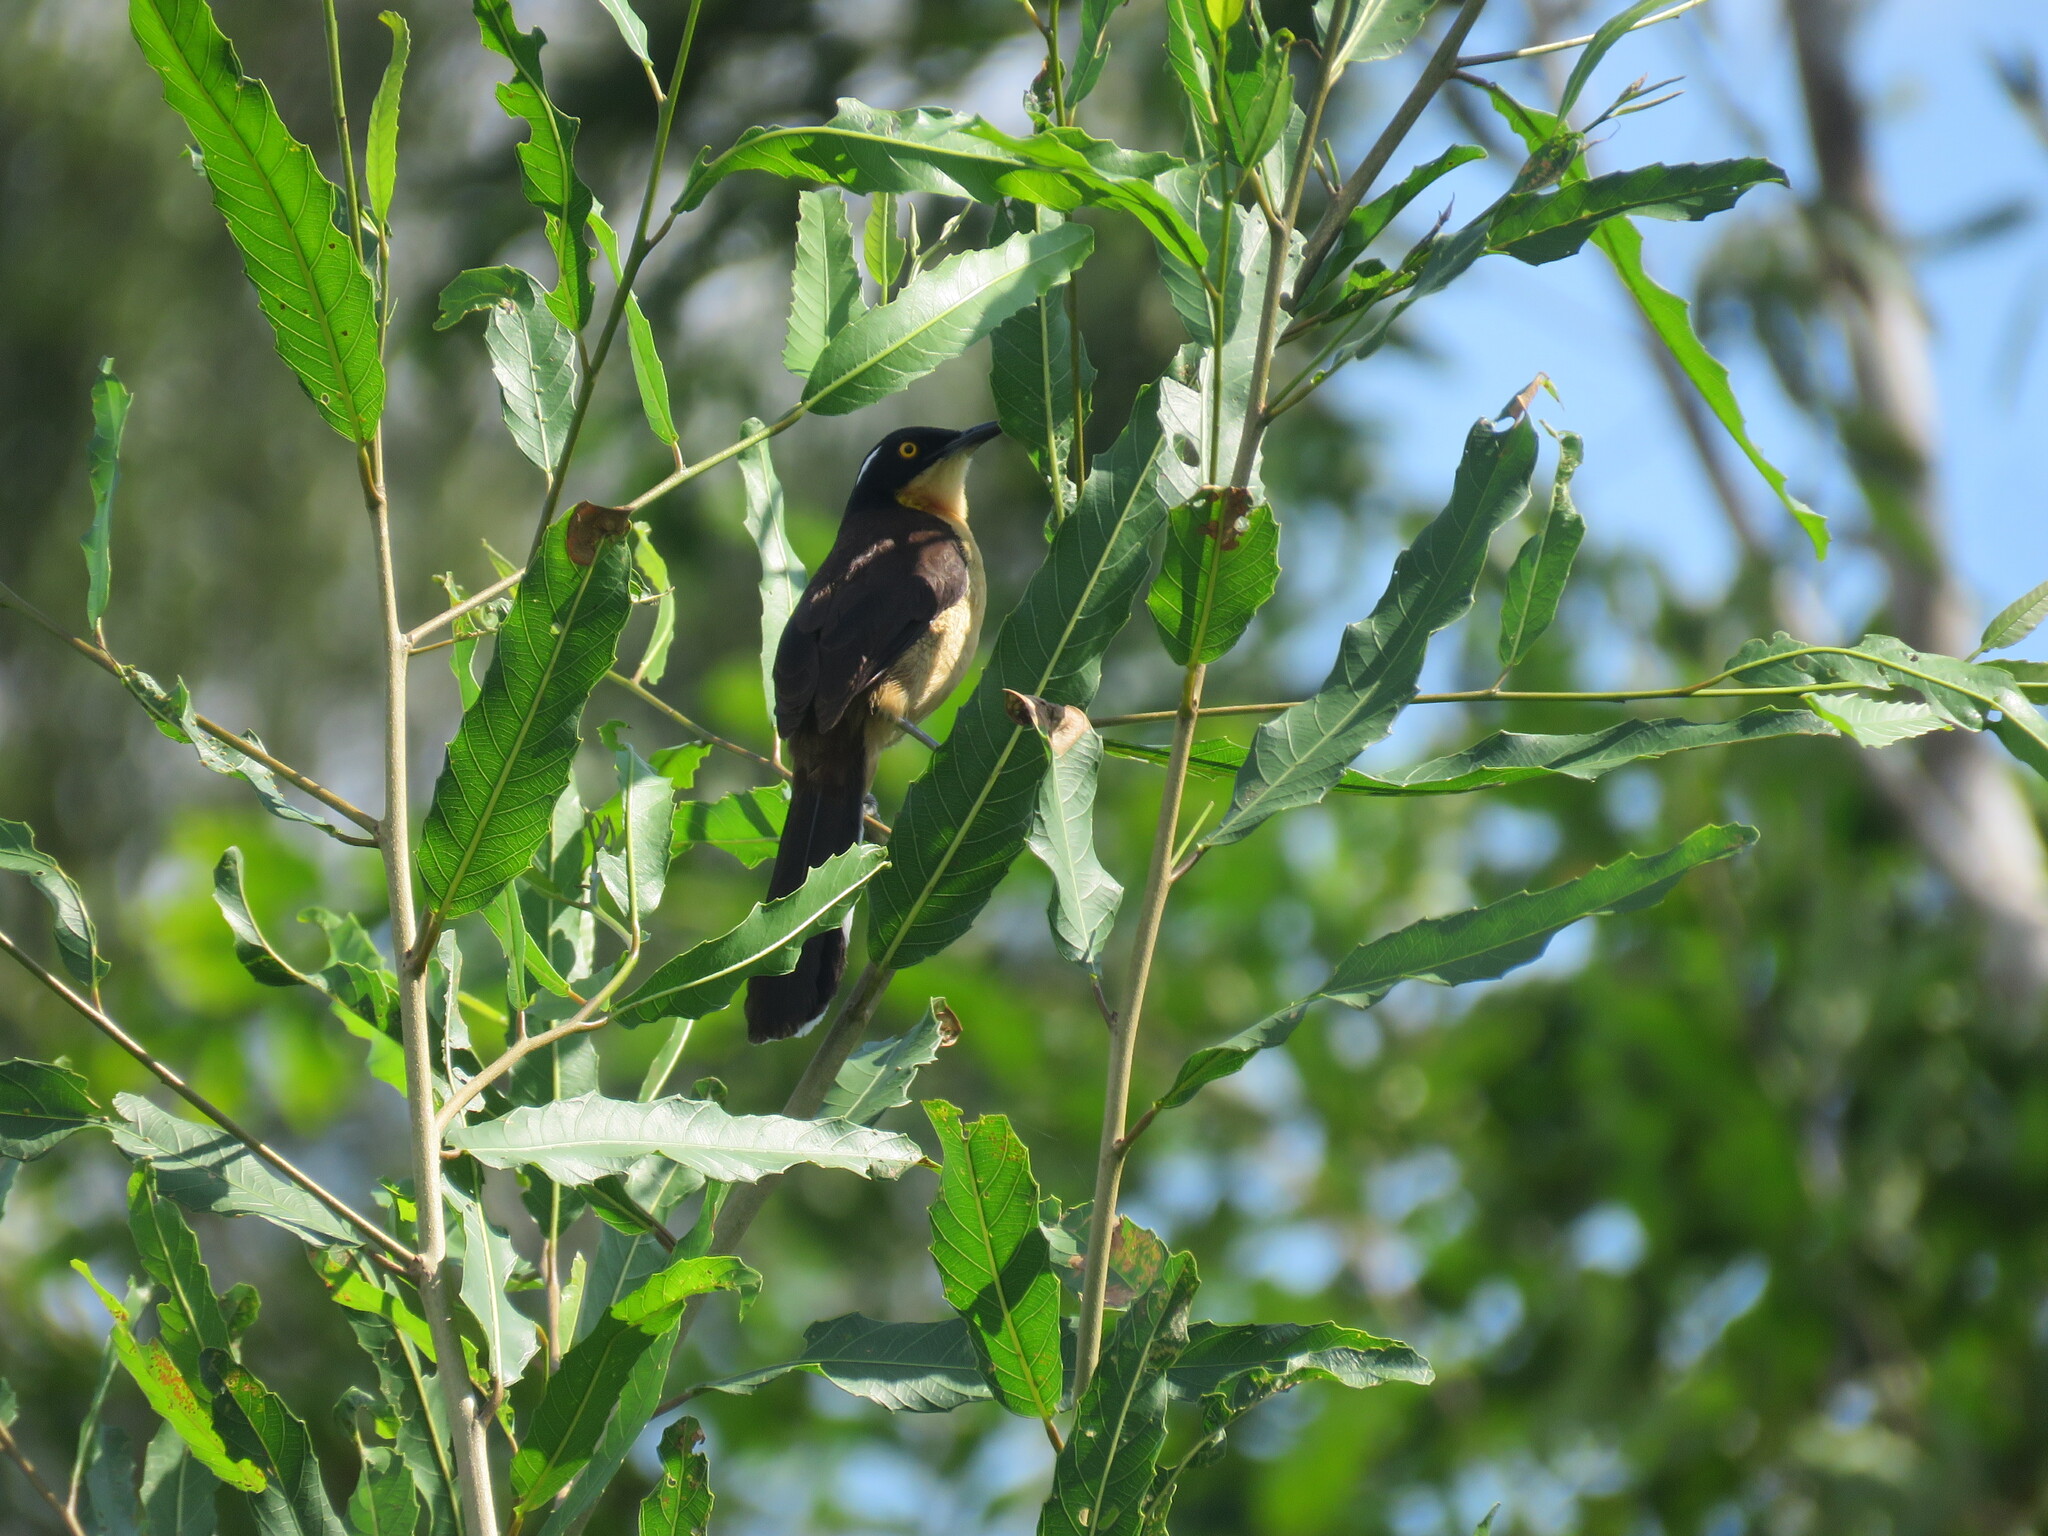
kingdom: Animalia
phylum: Chordata
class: Aves
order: Passeriformes
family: Donacobiidae
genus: Donacobius
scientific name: Donacobius atricapilla
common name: Black-capped donacobius
